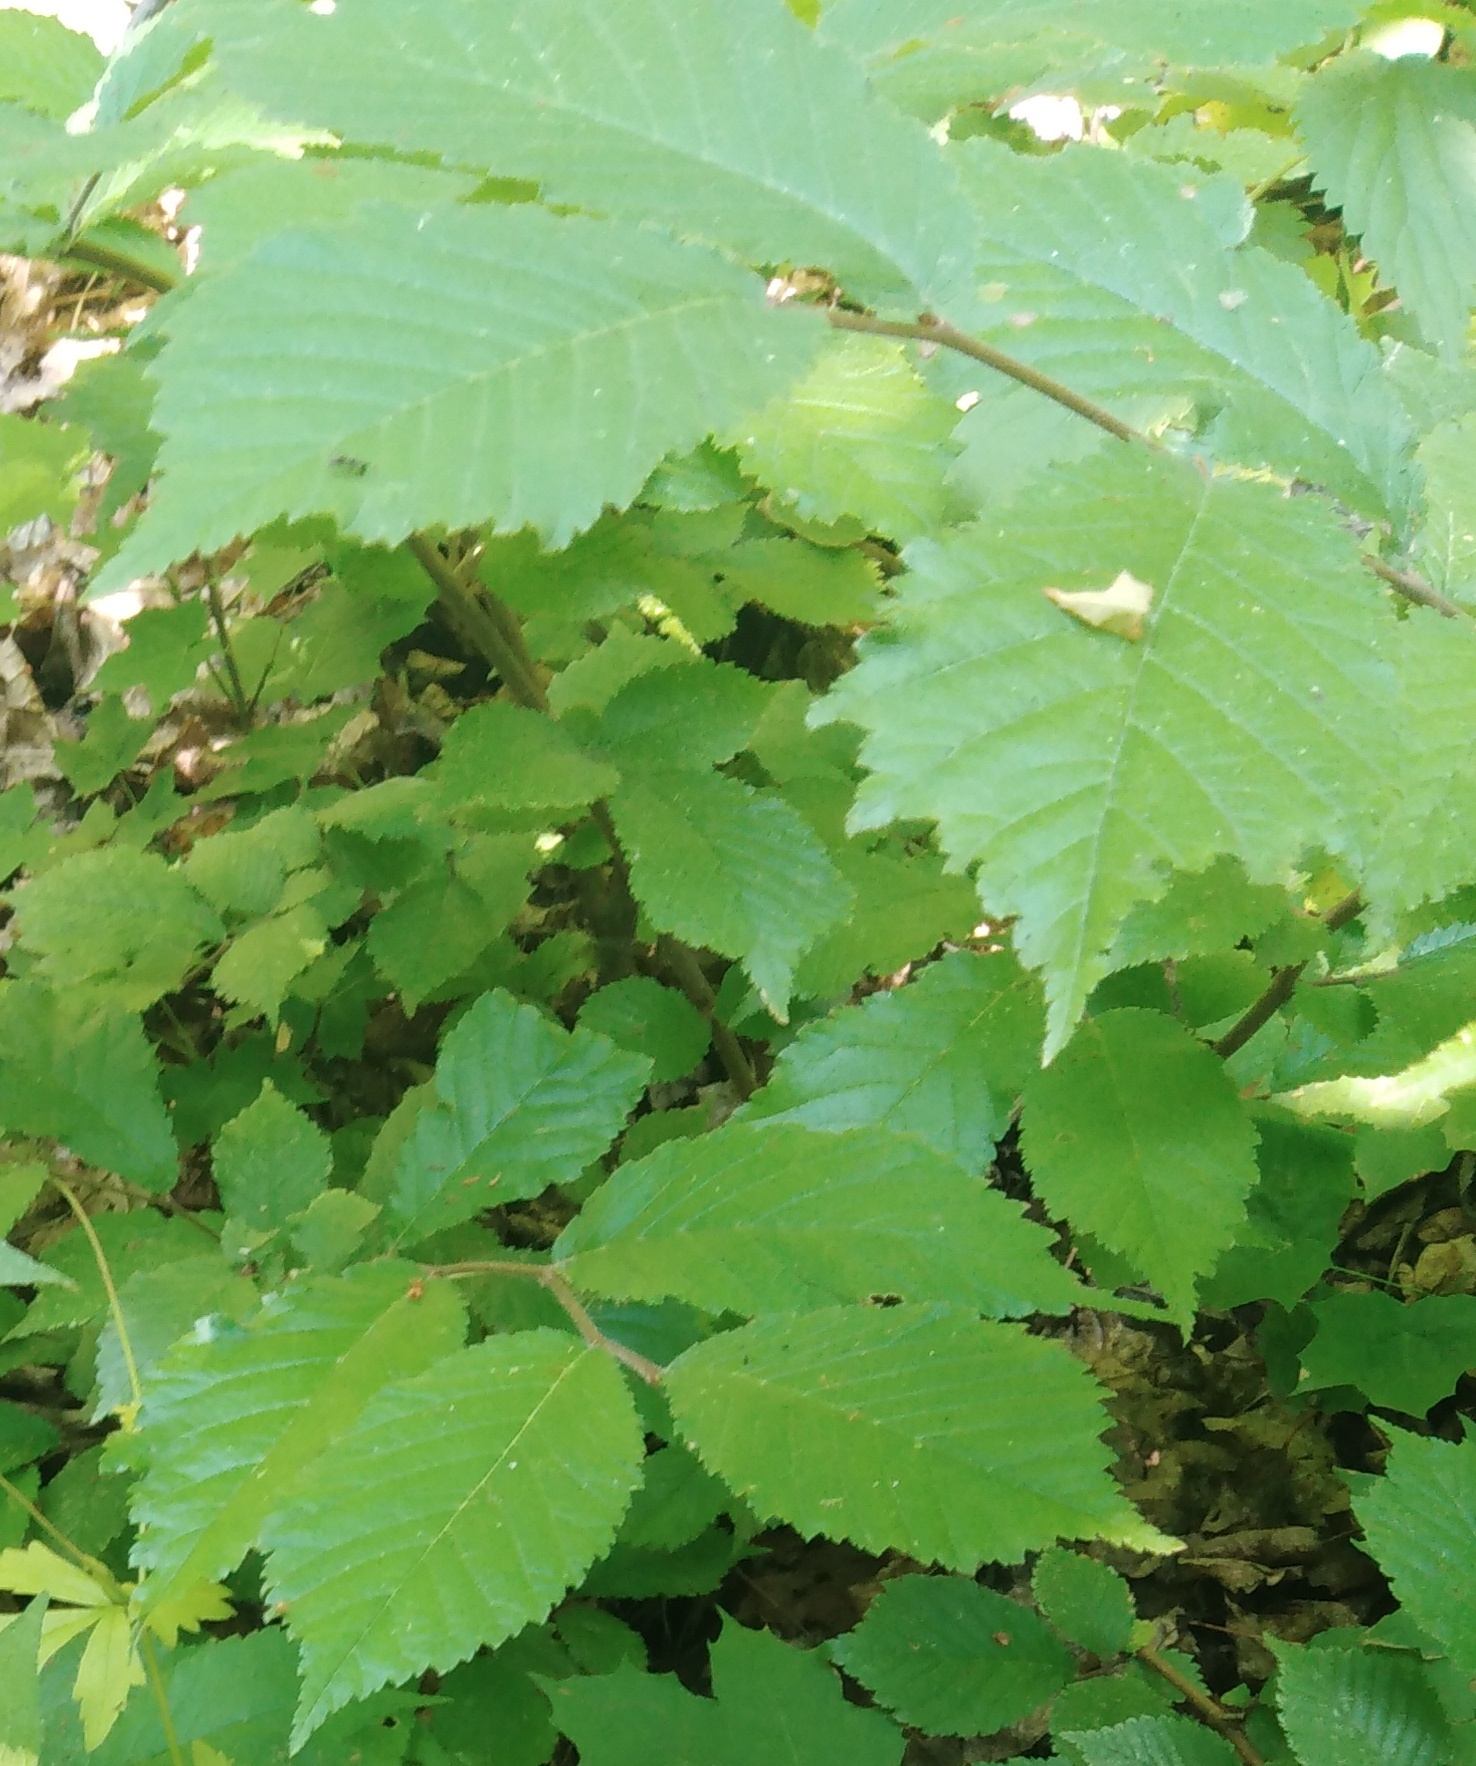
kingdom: Plantae
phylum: Tracheophyta
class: Magnoliopsida
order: Rosales
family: Ulmaceae
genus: Ulmus
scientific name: Ulmus glabra
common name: Wych elm
